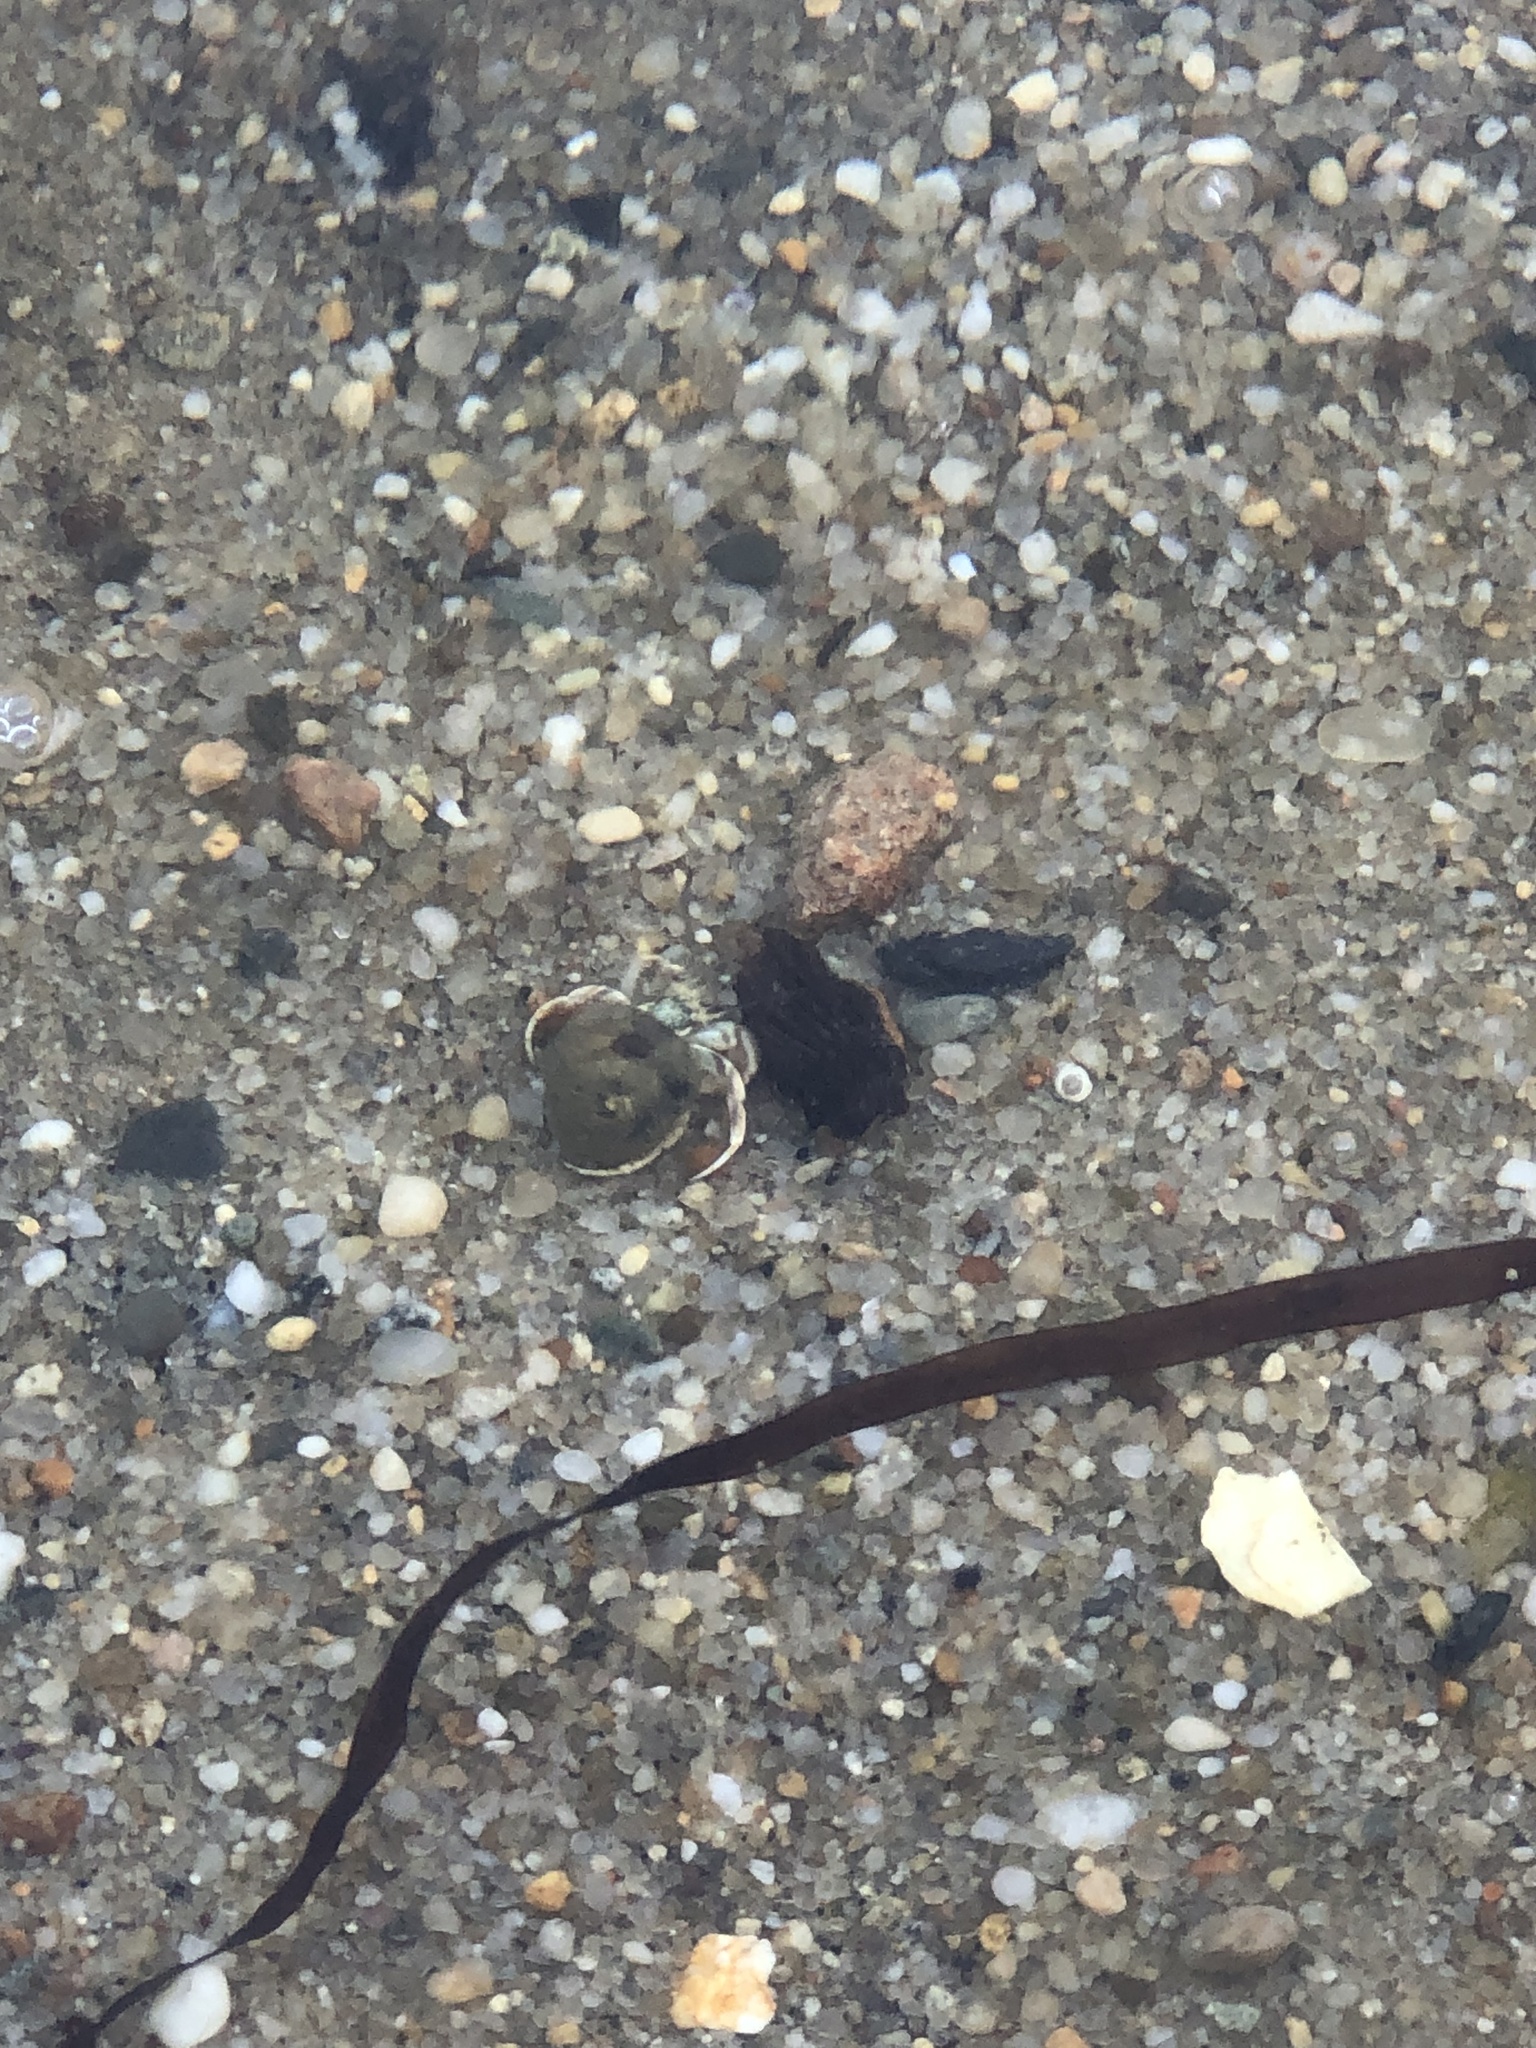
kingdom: Animalia
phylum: Arthropoda
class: Malacostraca
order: Decapoda
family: Paguridae
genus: Pagurus
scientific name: Pagurus longicarpus
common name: Long-armed hermit crab
